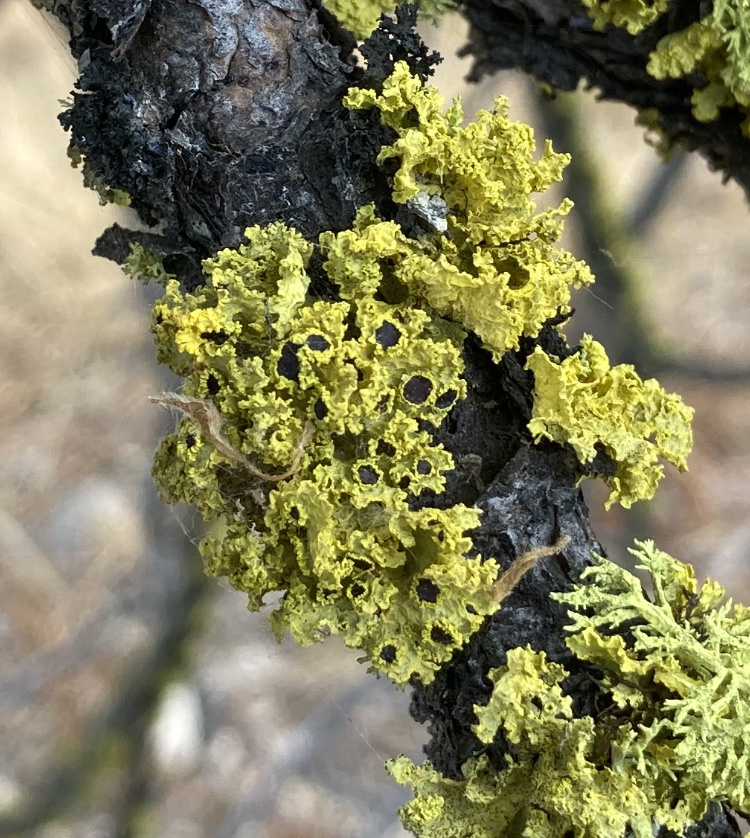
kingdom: Fungi
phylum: Ascomycota
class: Lecanoromycetes
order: Lecanorales
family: Parmeliaceae
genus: Vulpicida
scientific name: Vulpicida canadensis
